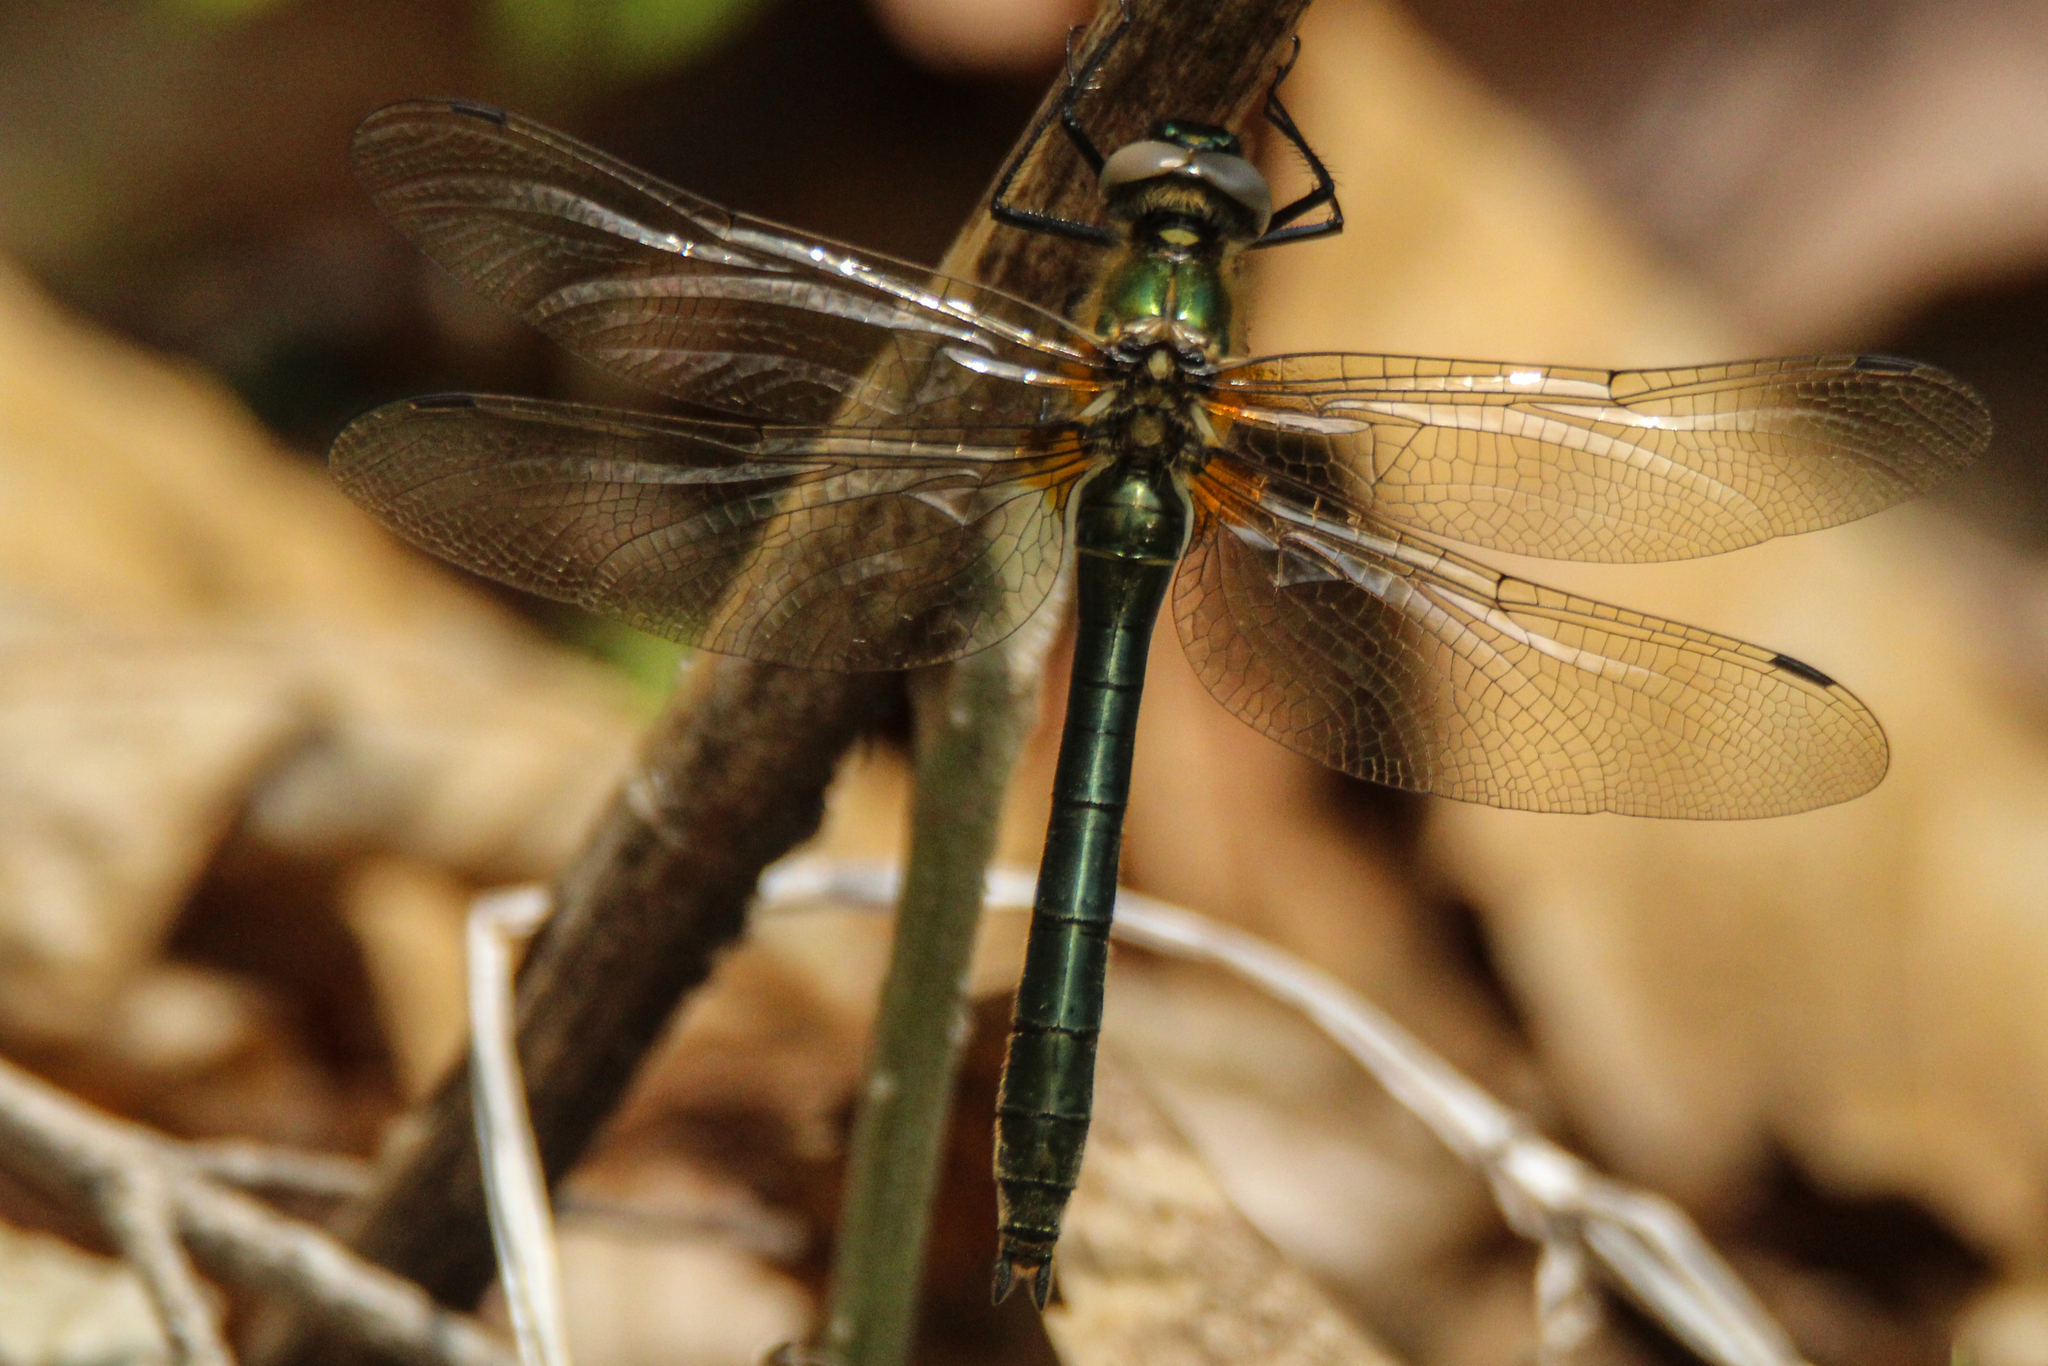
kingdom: Animalia
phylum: Arthropoda
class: Insecta
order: Odonata
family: Corduliidae
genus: Cordulia
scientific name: Cordulia aenea
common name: Downy emerald
